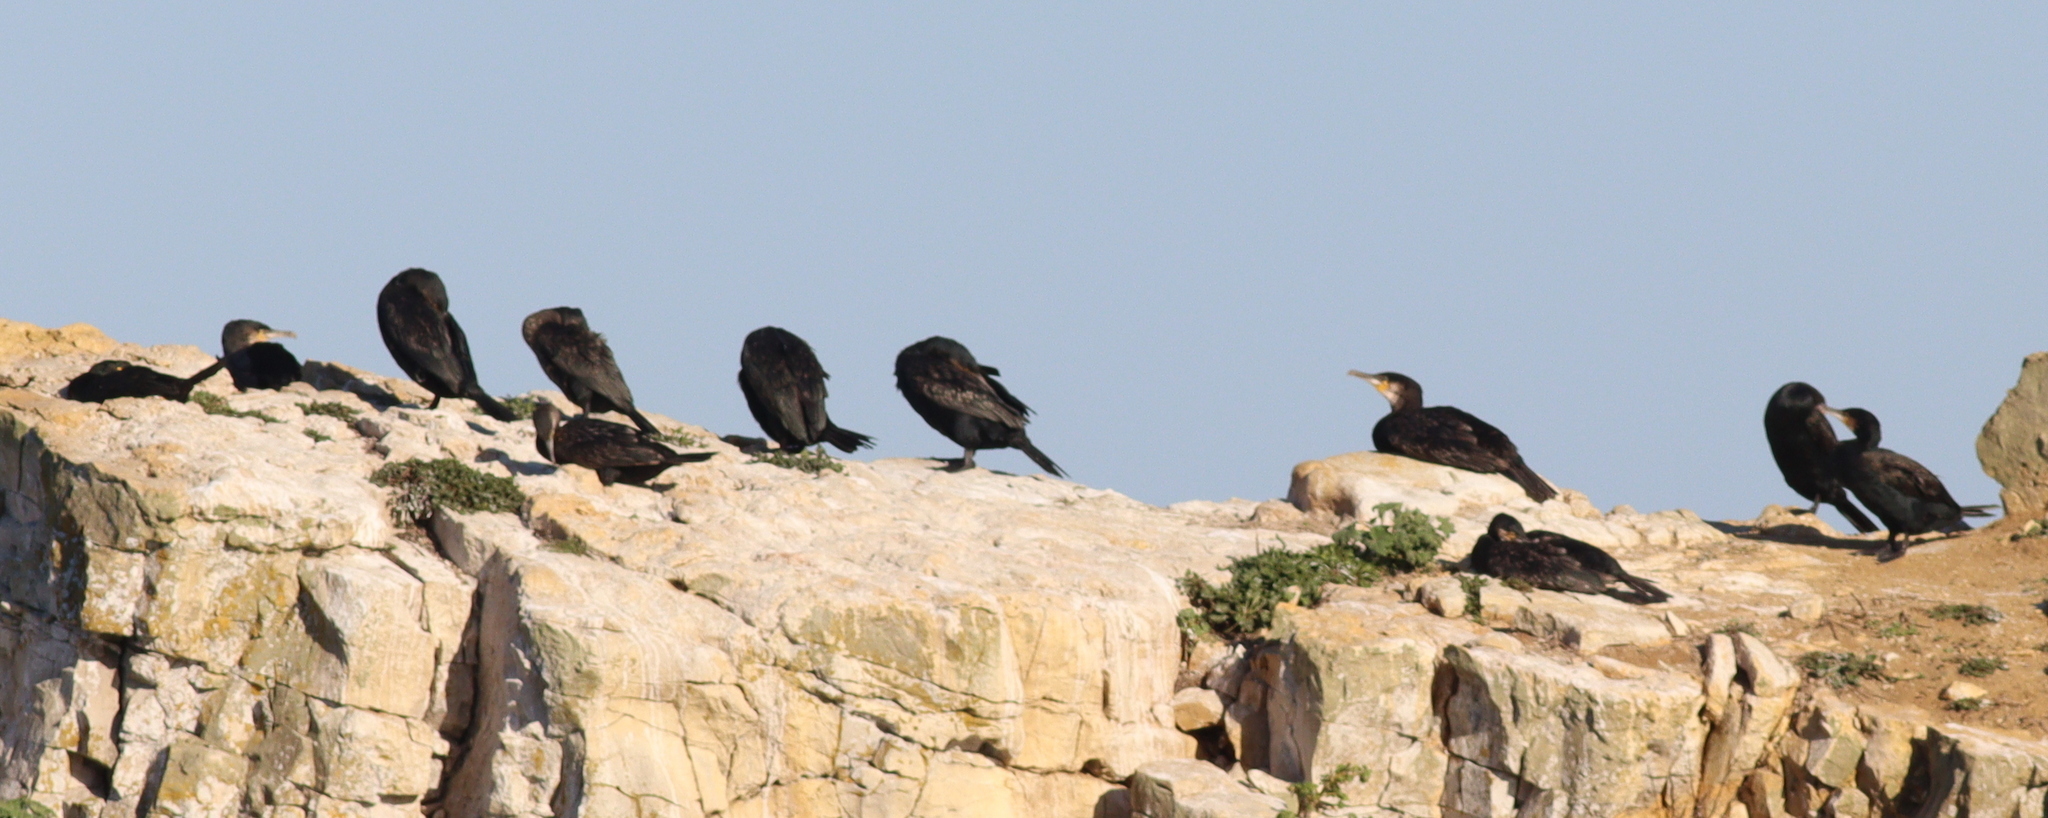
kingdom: Animalia
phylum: Chordata
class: Aves
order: Suliformes
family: Phalacrocoracidae
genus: Phalacrocorax
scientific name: Phalacrocorax carbo
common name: Great cormorant
